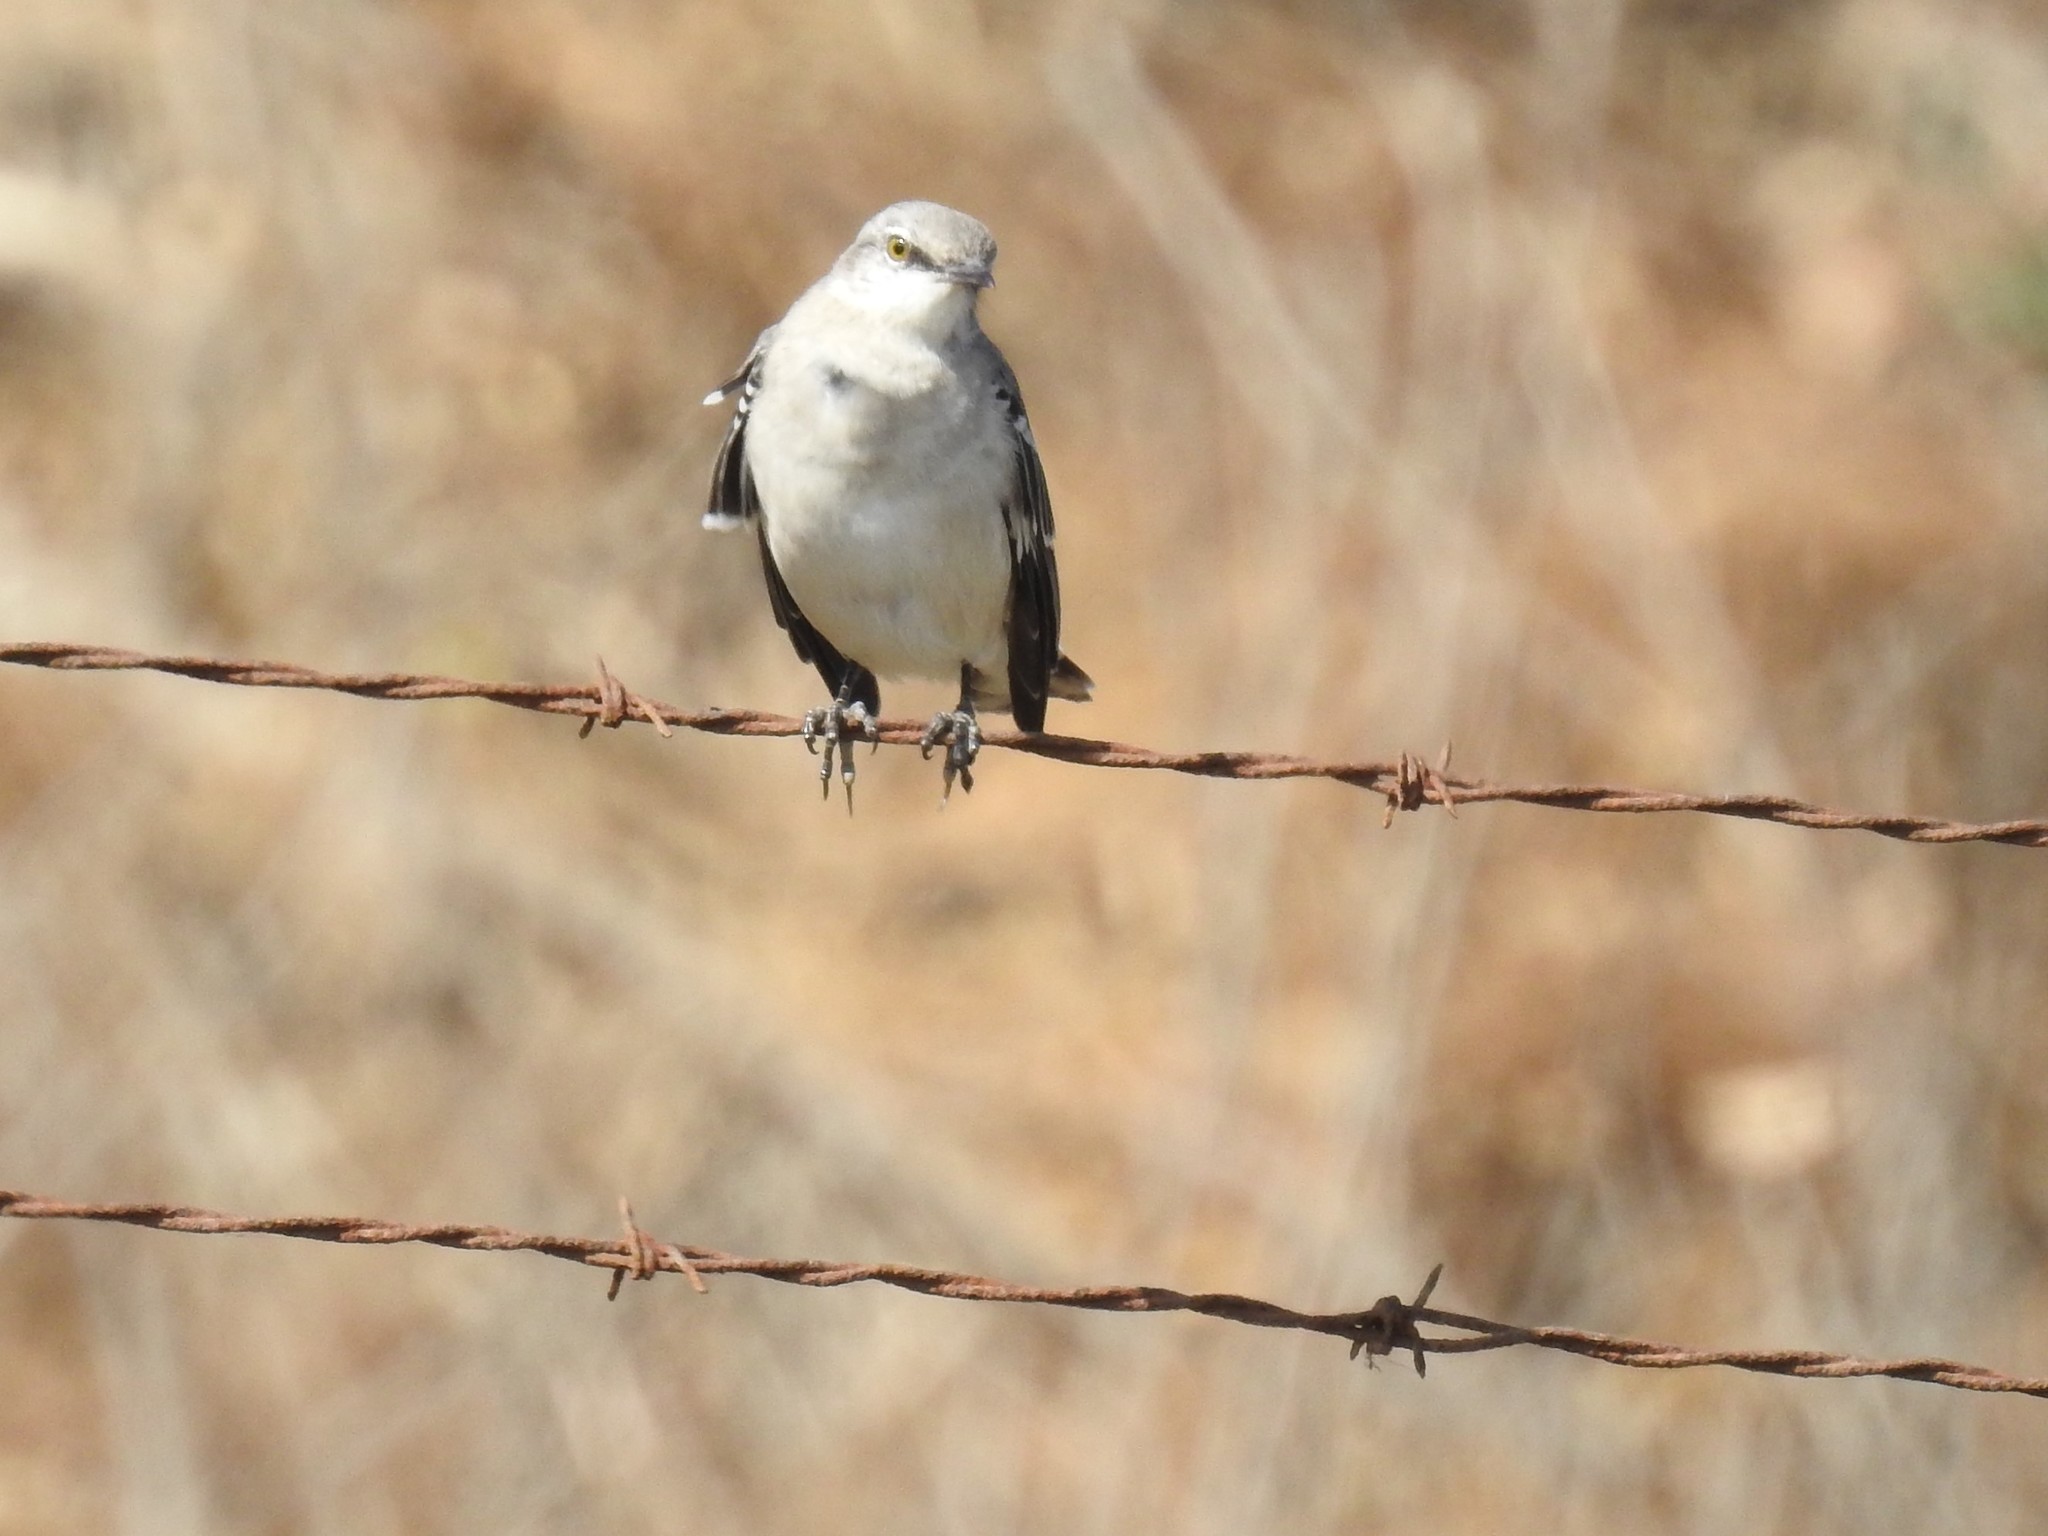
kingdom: Animalia
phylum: Chordata
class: Aves
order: Passeriformes
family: Mimidae
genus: Mimus
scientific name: Mimus polyglottos
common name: Northern mockingbird
